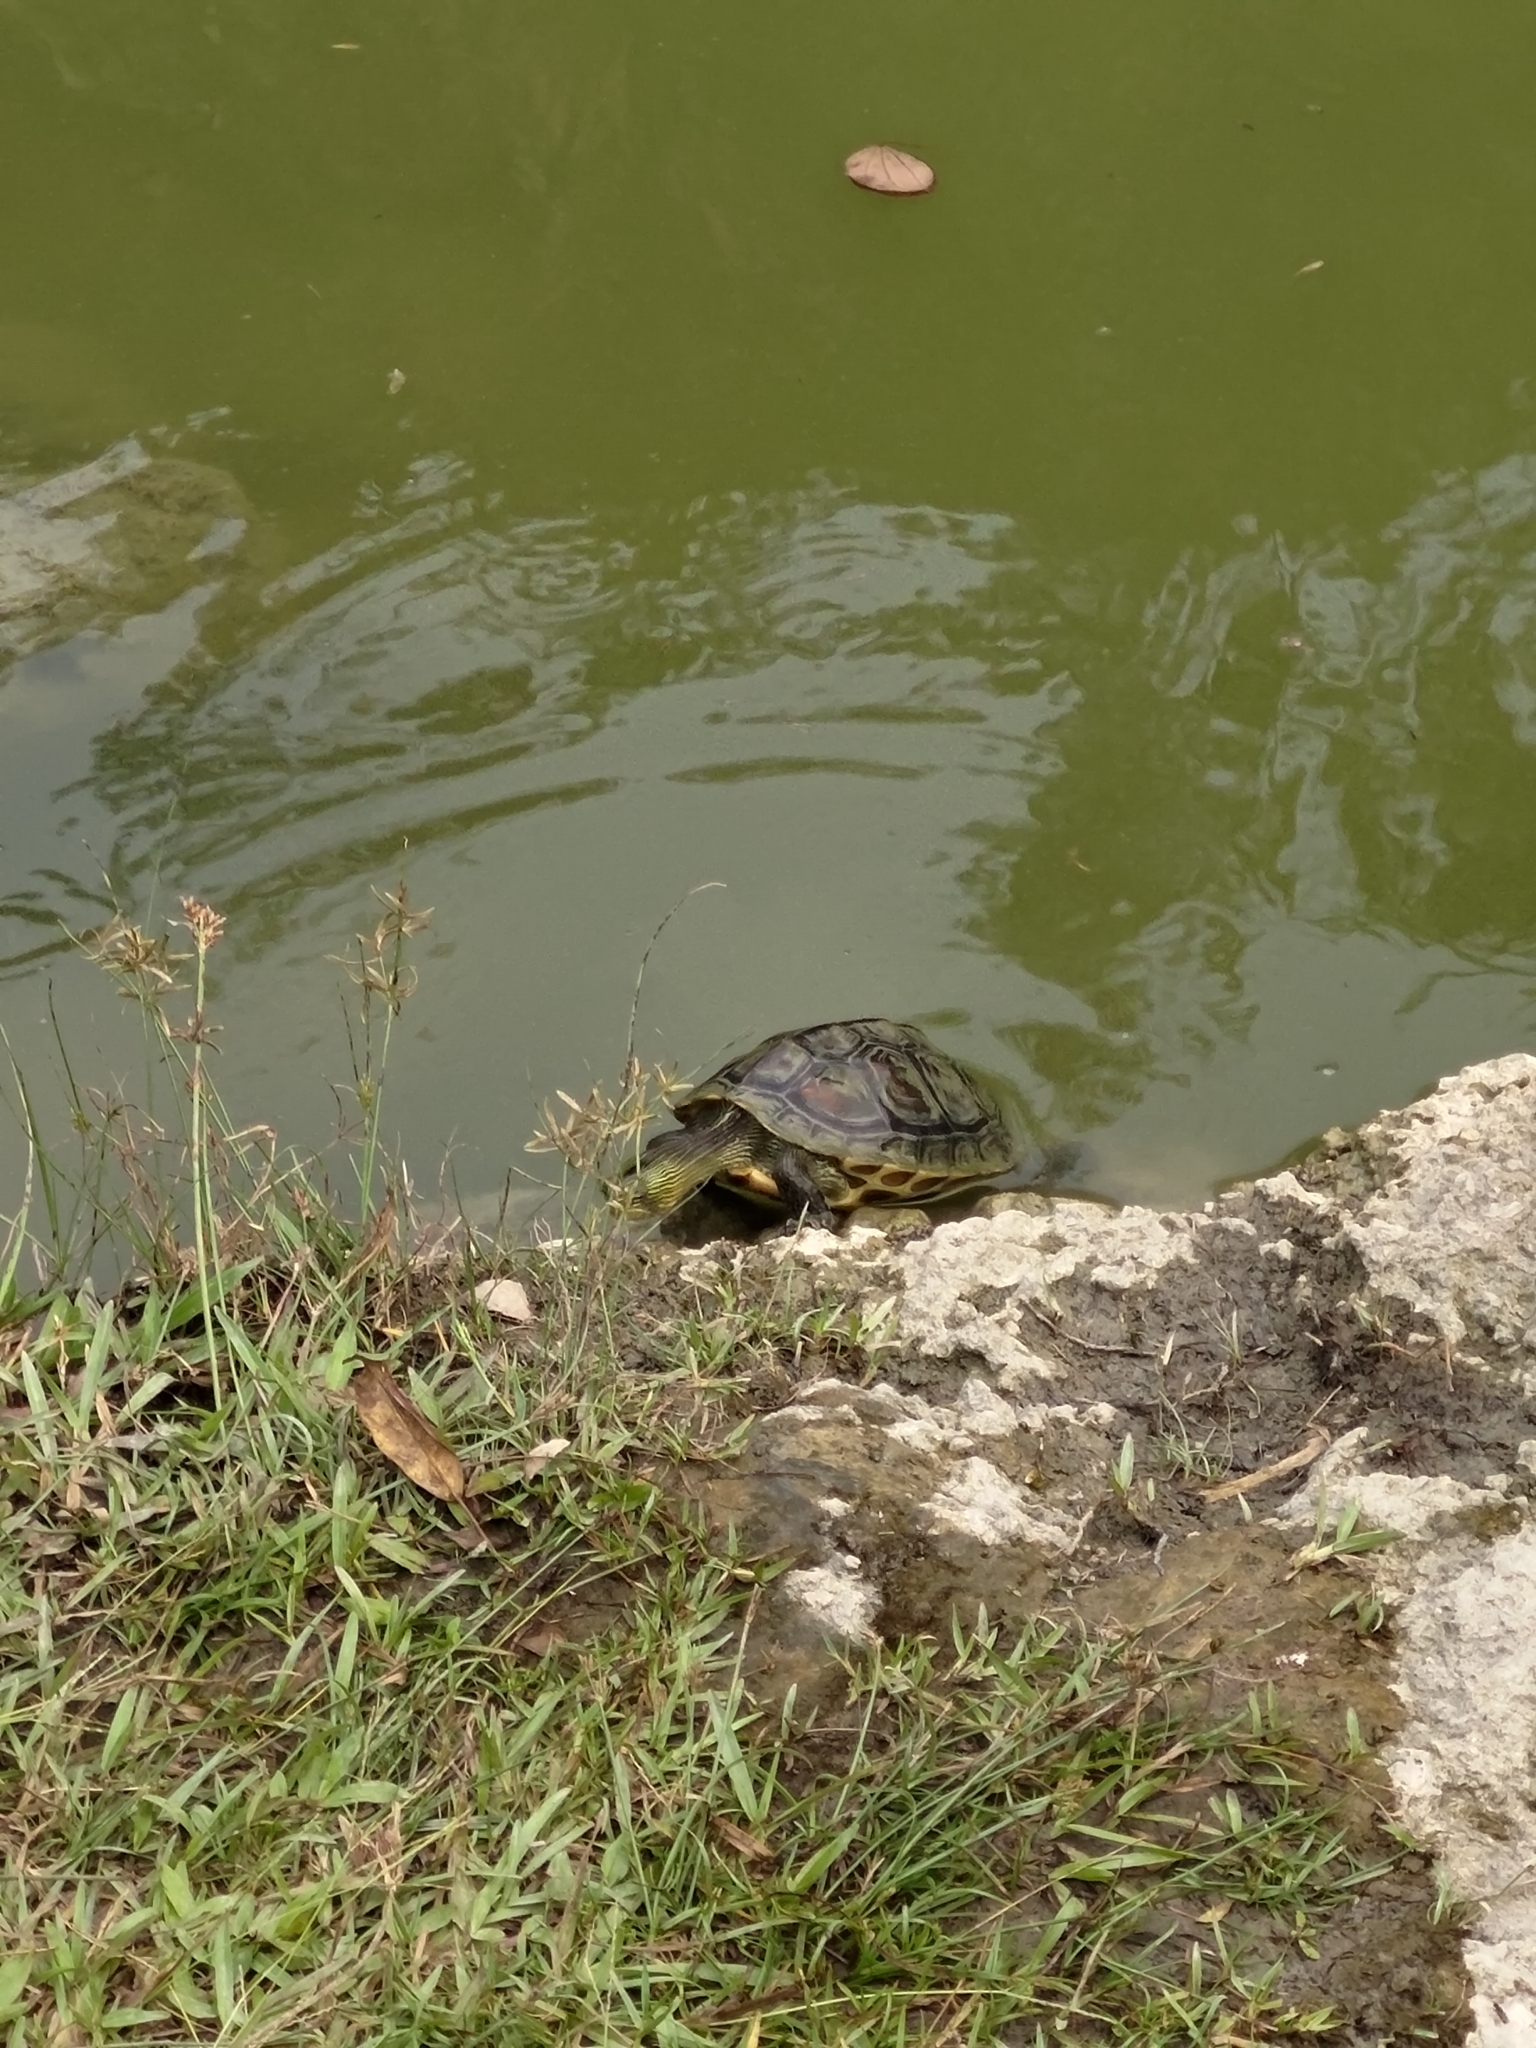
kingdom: Animalia
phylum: Chordata
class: Testudines
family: Geoemydidae
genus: Mauremys
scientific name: Mauremys sinensis
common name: Chinese stripe-necked turtle
